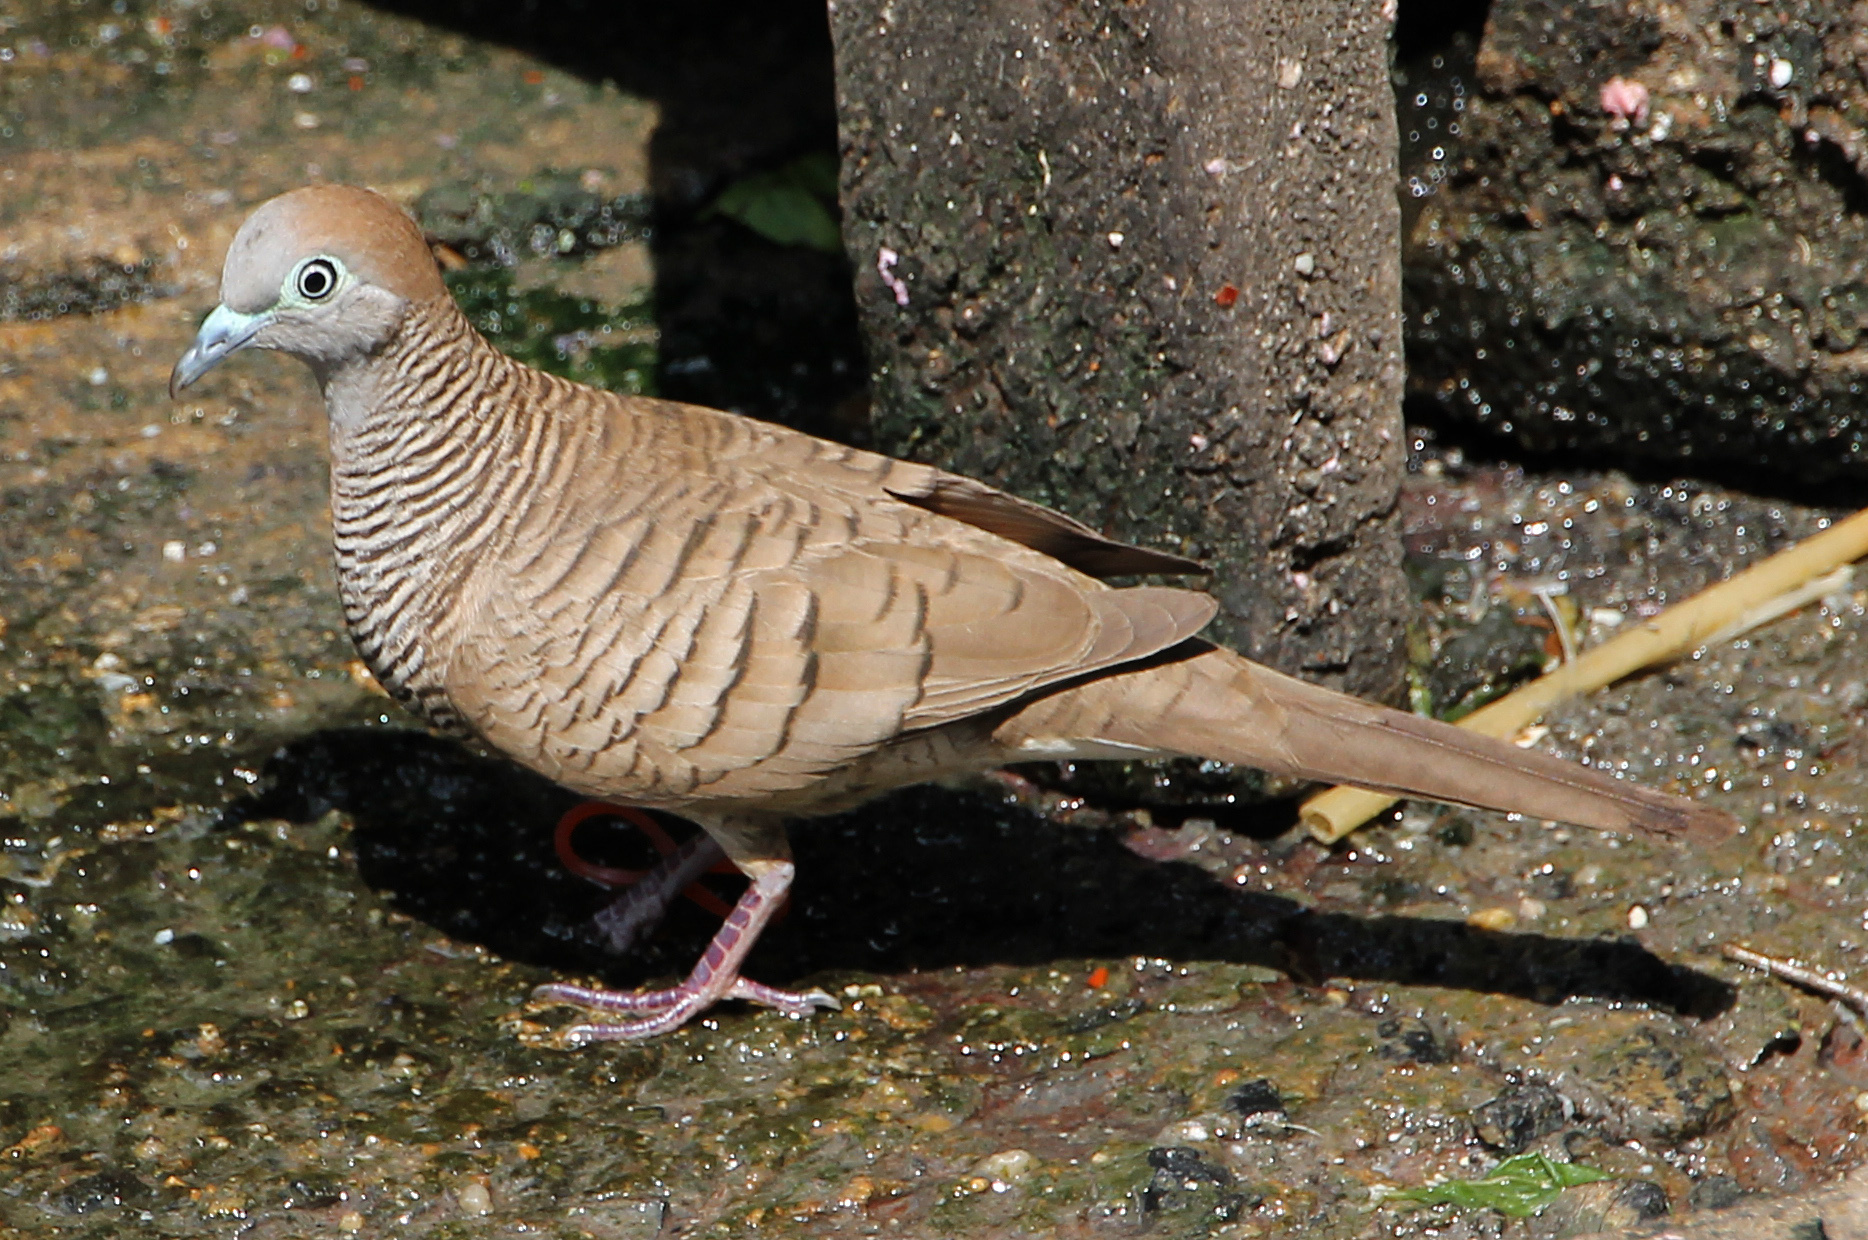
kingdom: Animalia
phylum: Chordata
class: Aves
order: Columbiformes
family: Columbidae
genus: Geopelia
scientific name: Geopelia striata
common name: Zebra dove
